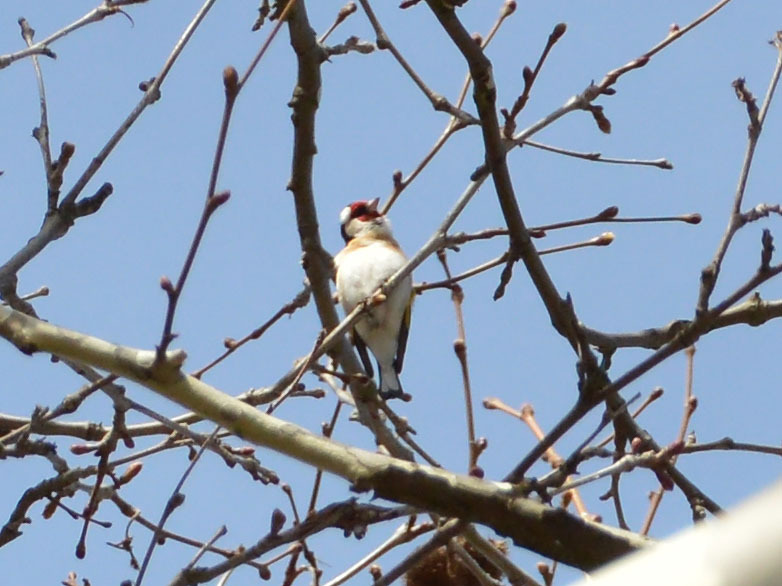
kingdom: Animalia
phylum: Chordata
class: Aves
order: Passeriformes
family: Fringillidae
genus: Carduelis
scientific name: Carduelis carduelis
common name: European goldfinch
